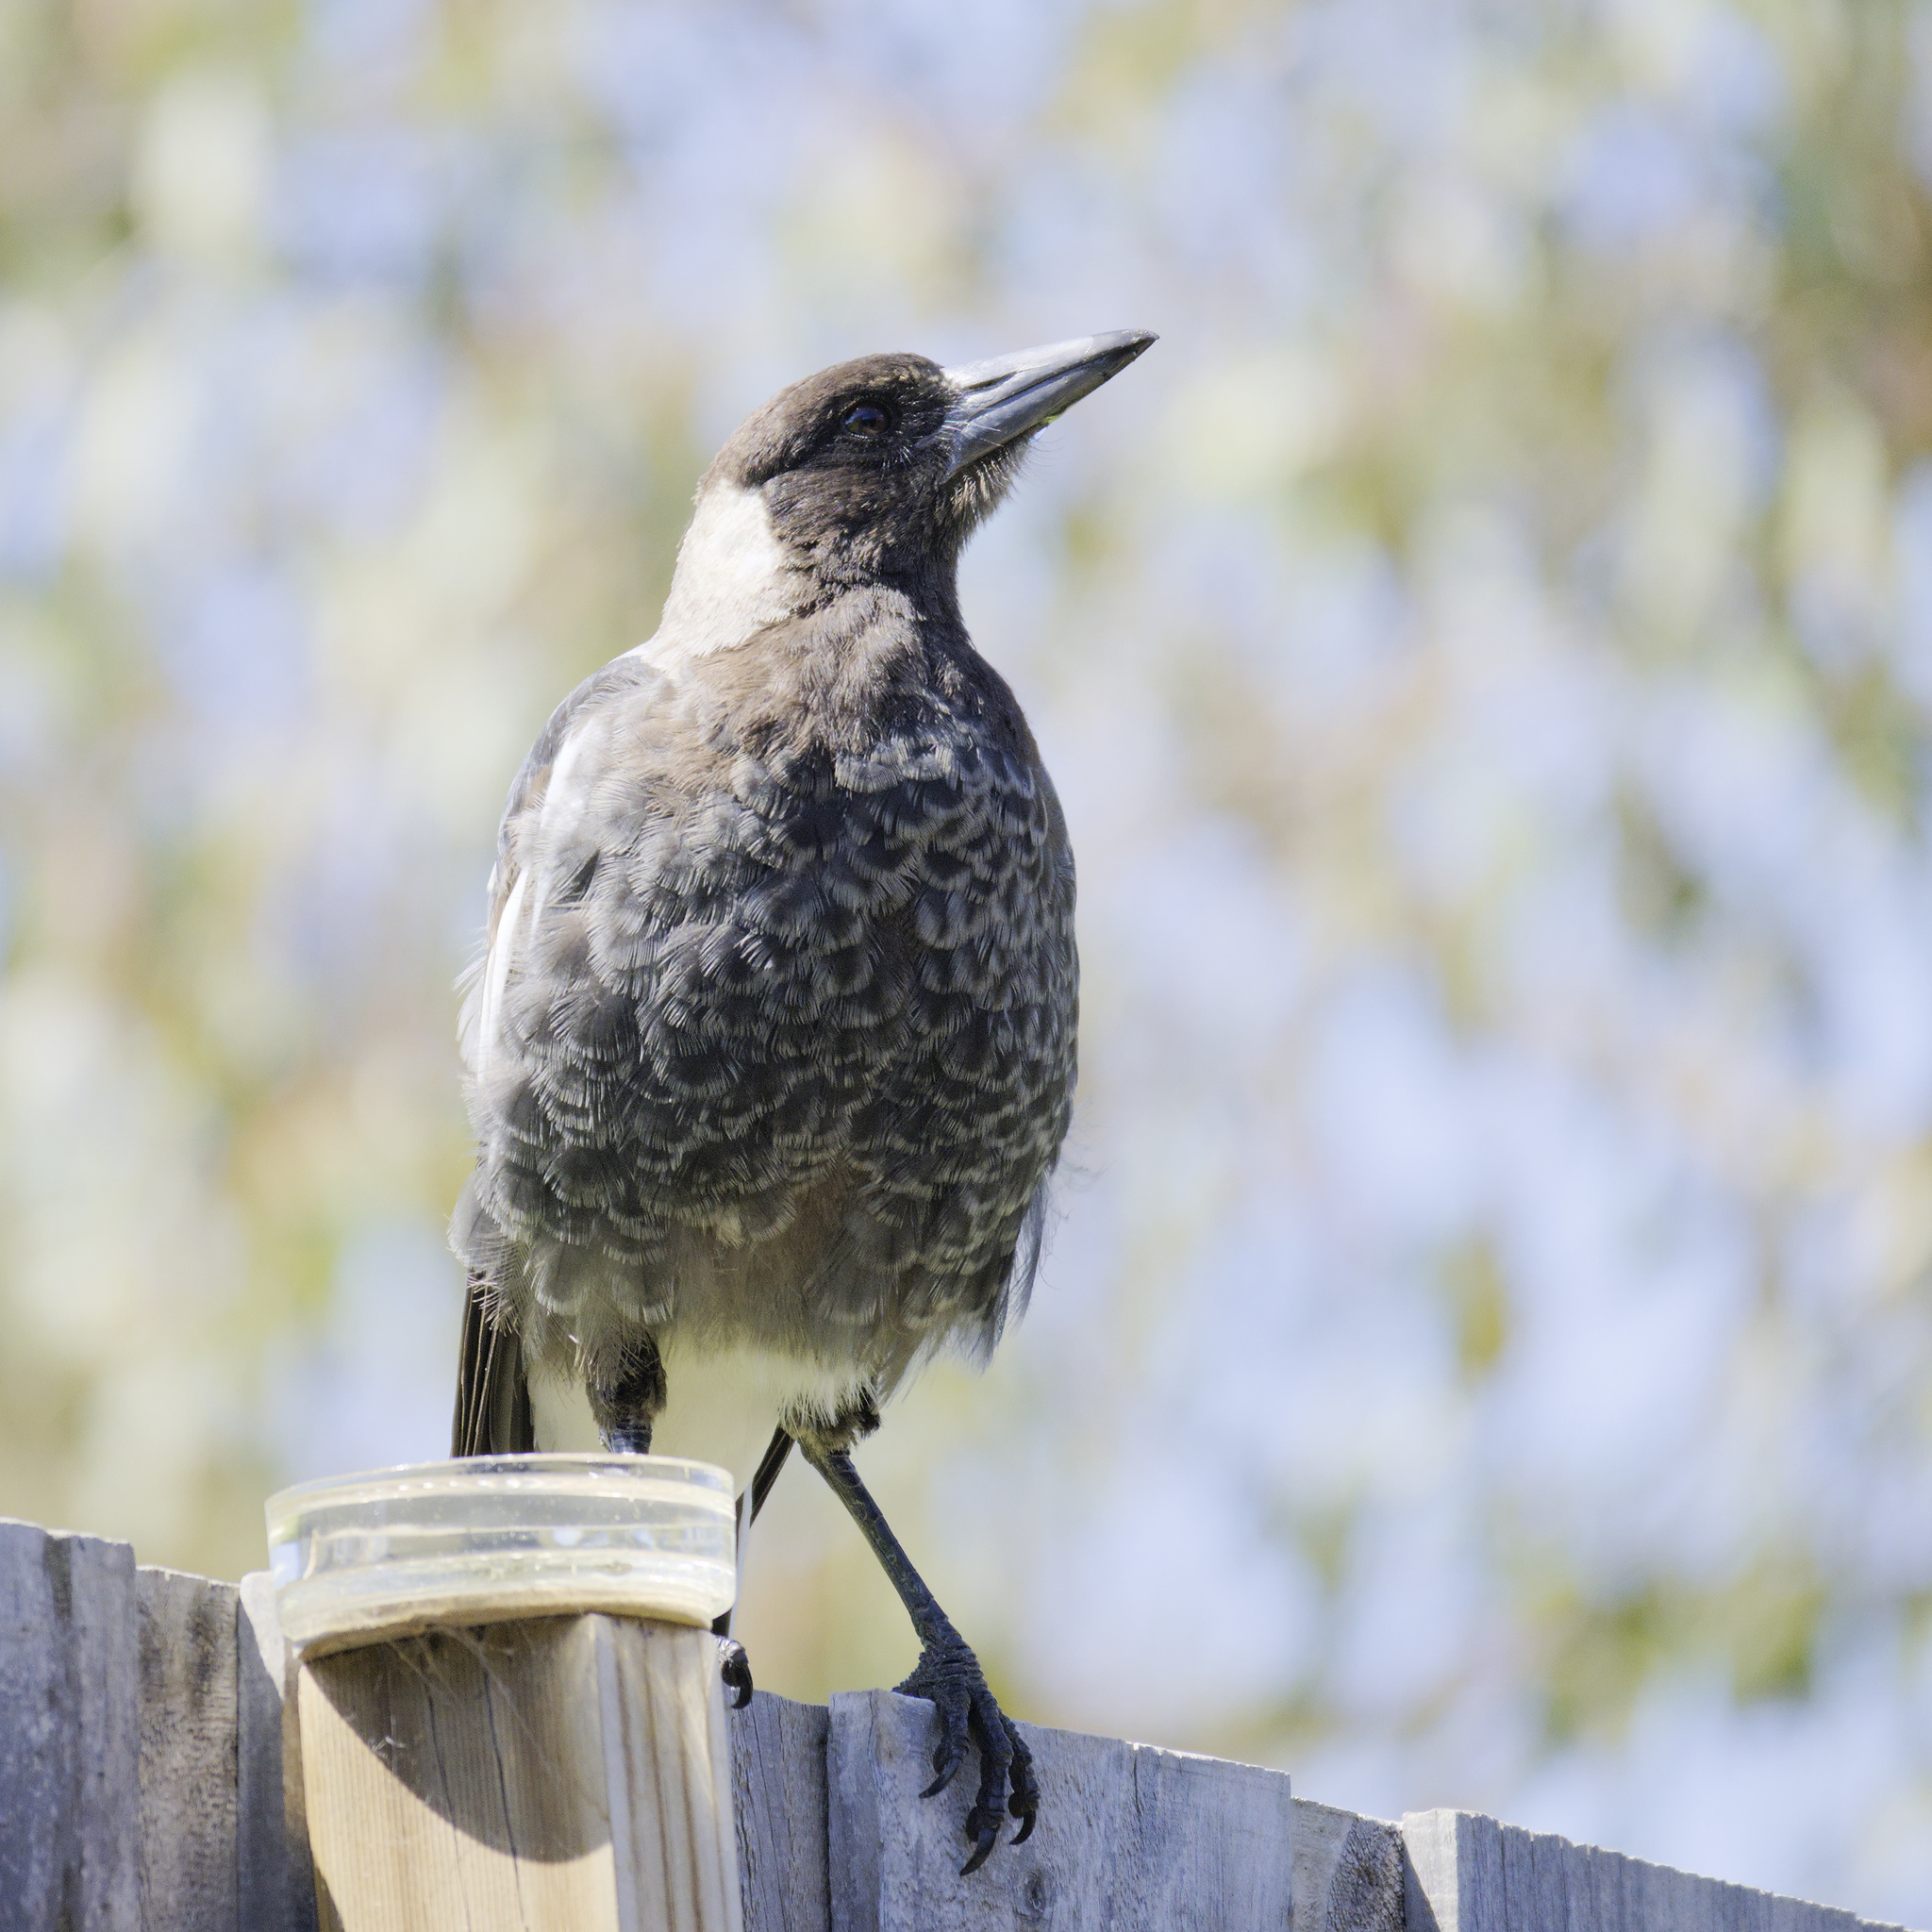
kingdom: Animalia
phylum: Chordata
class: Aves
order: Passeriformes
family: Cracticidae
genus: Gymnorhina
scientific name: Gymnorhina tibicen
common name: Australian magpie
